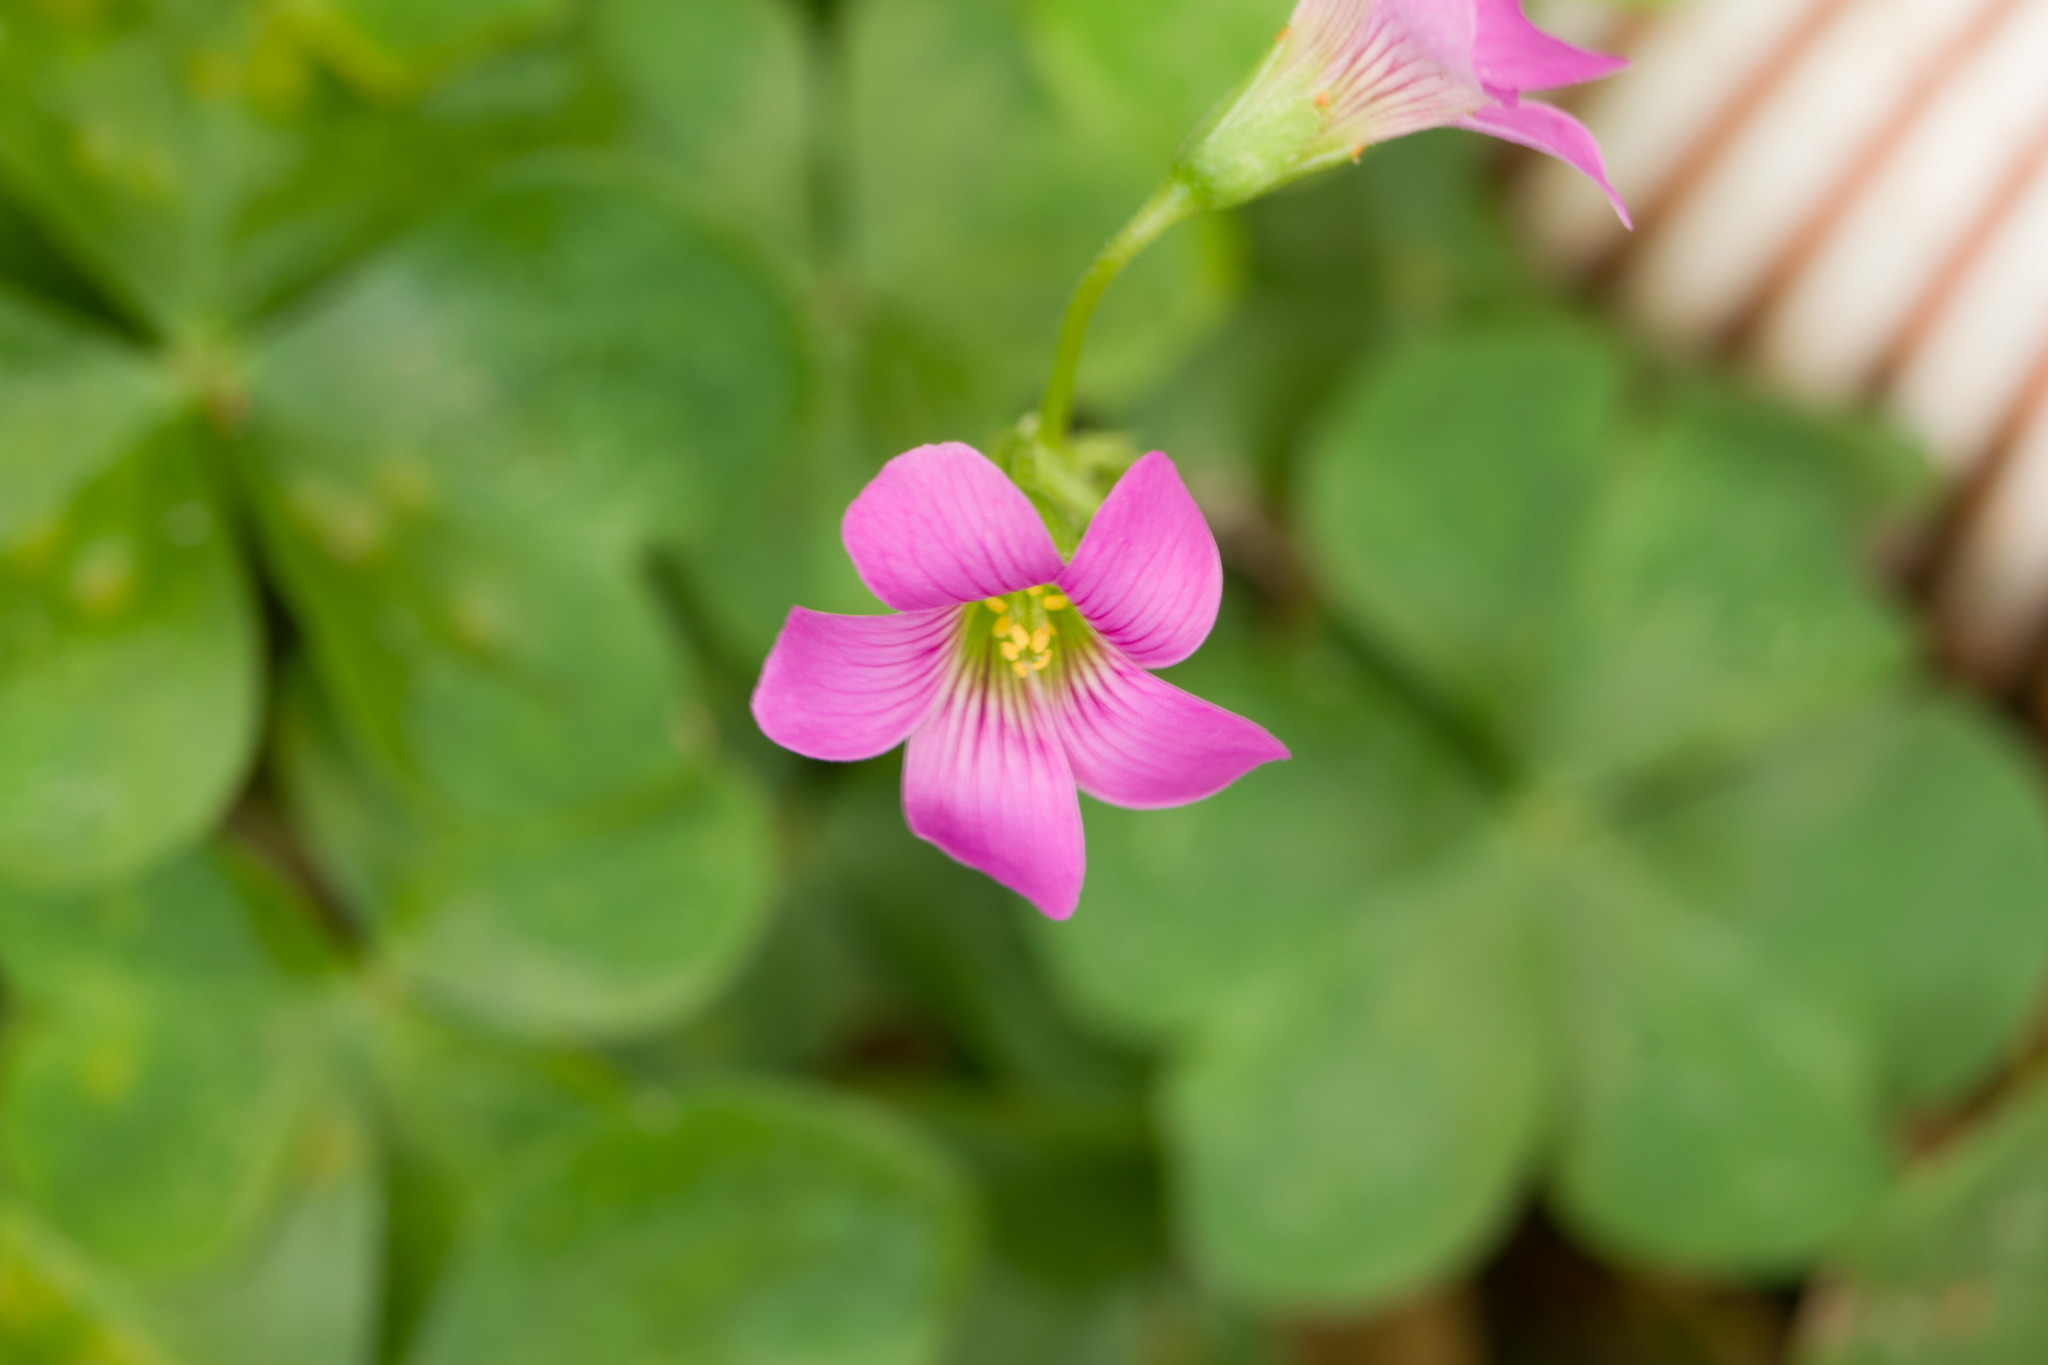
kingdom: Plantae
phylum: Tracheophyta
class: Magnoliopsida
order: Oxalidales
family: Oxalidaceae
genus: Oxalis
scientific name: Oxalis debilis
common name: Large-flowered pink-sorrel
